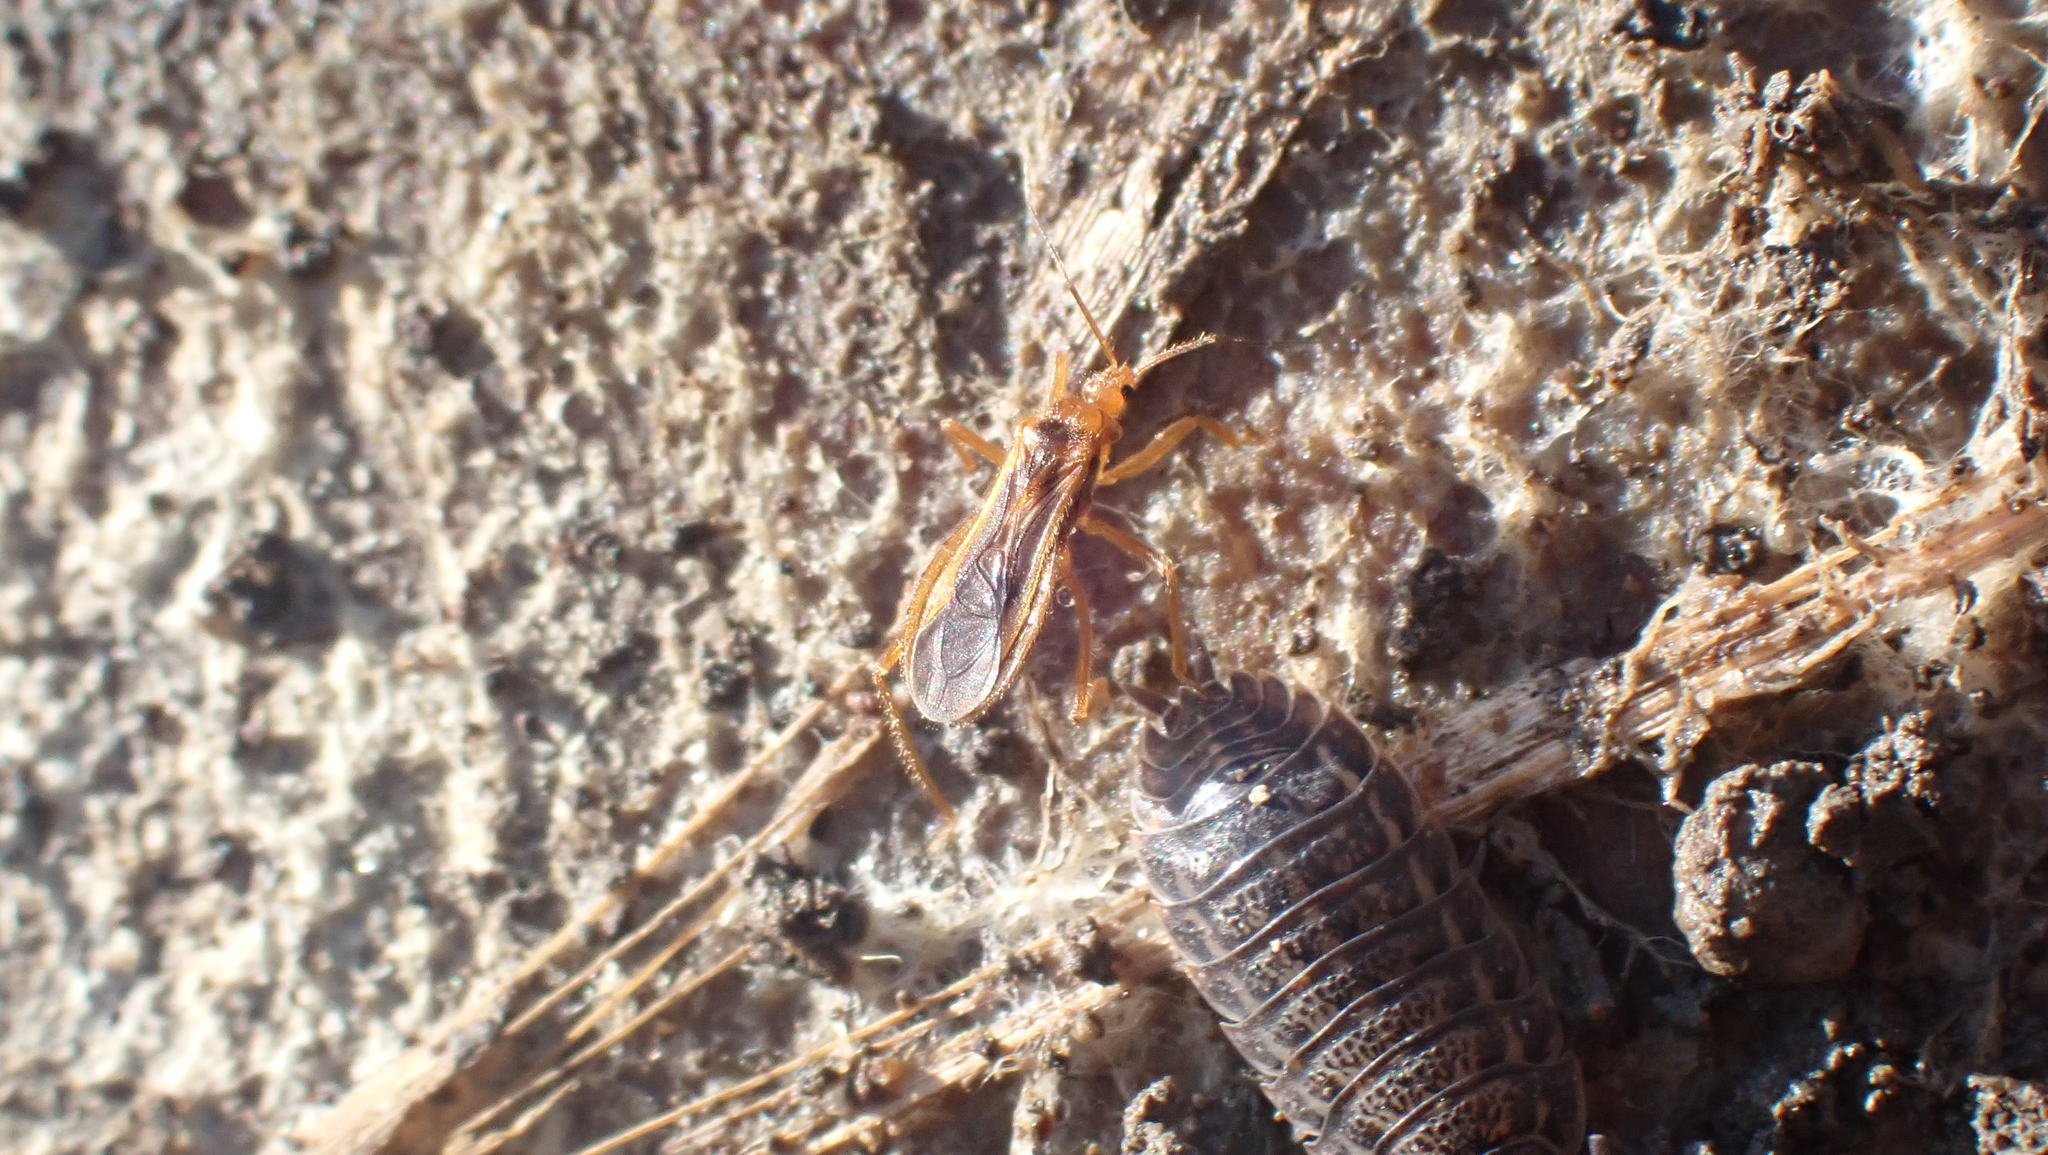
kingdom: Animalia
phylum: Arthropoda
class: Insecta
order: Hemiptera
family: Reduviidae
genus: Oncerotrachelus
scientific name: Oncerotrachelus acuminatus
